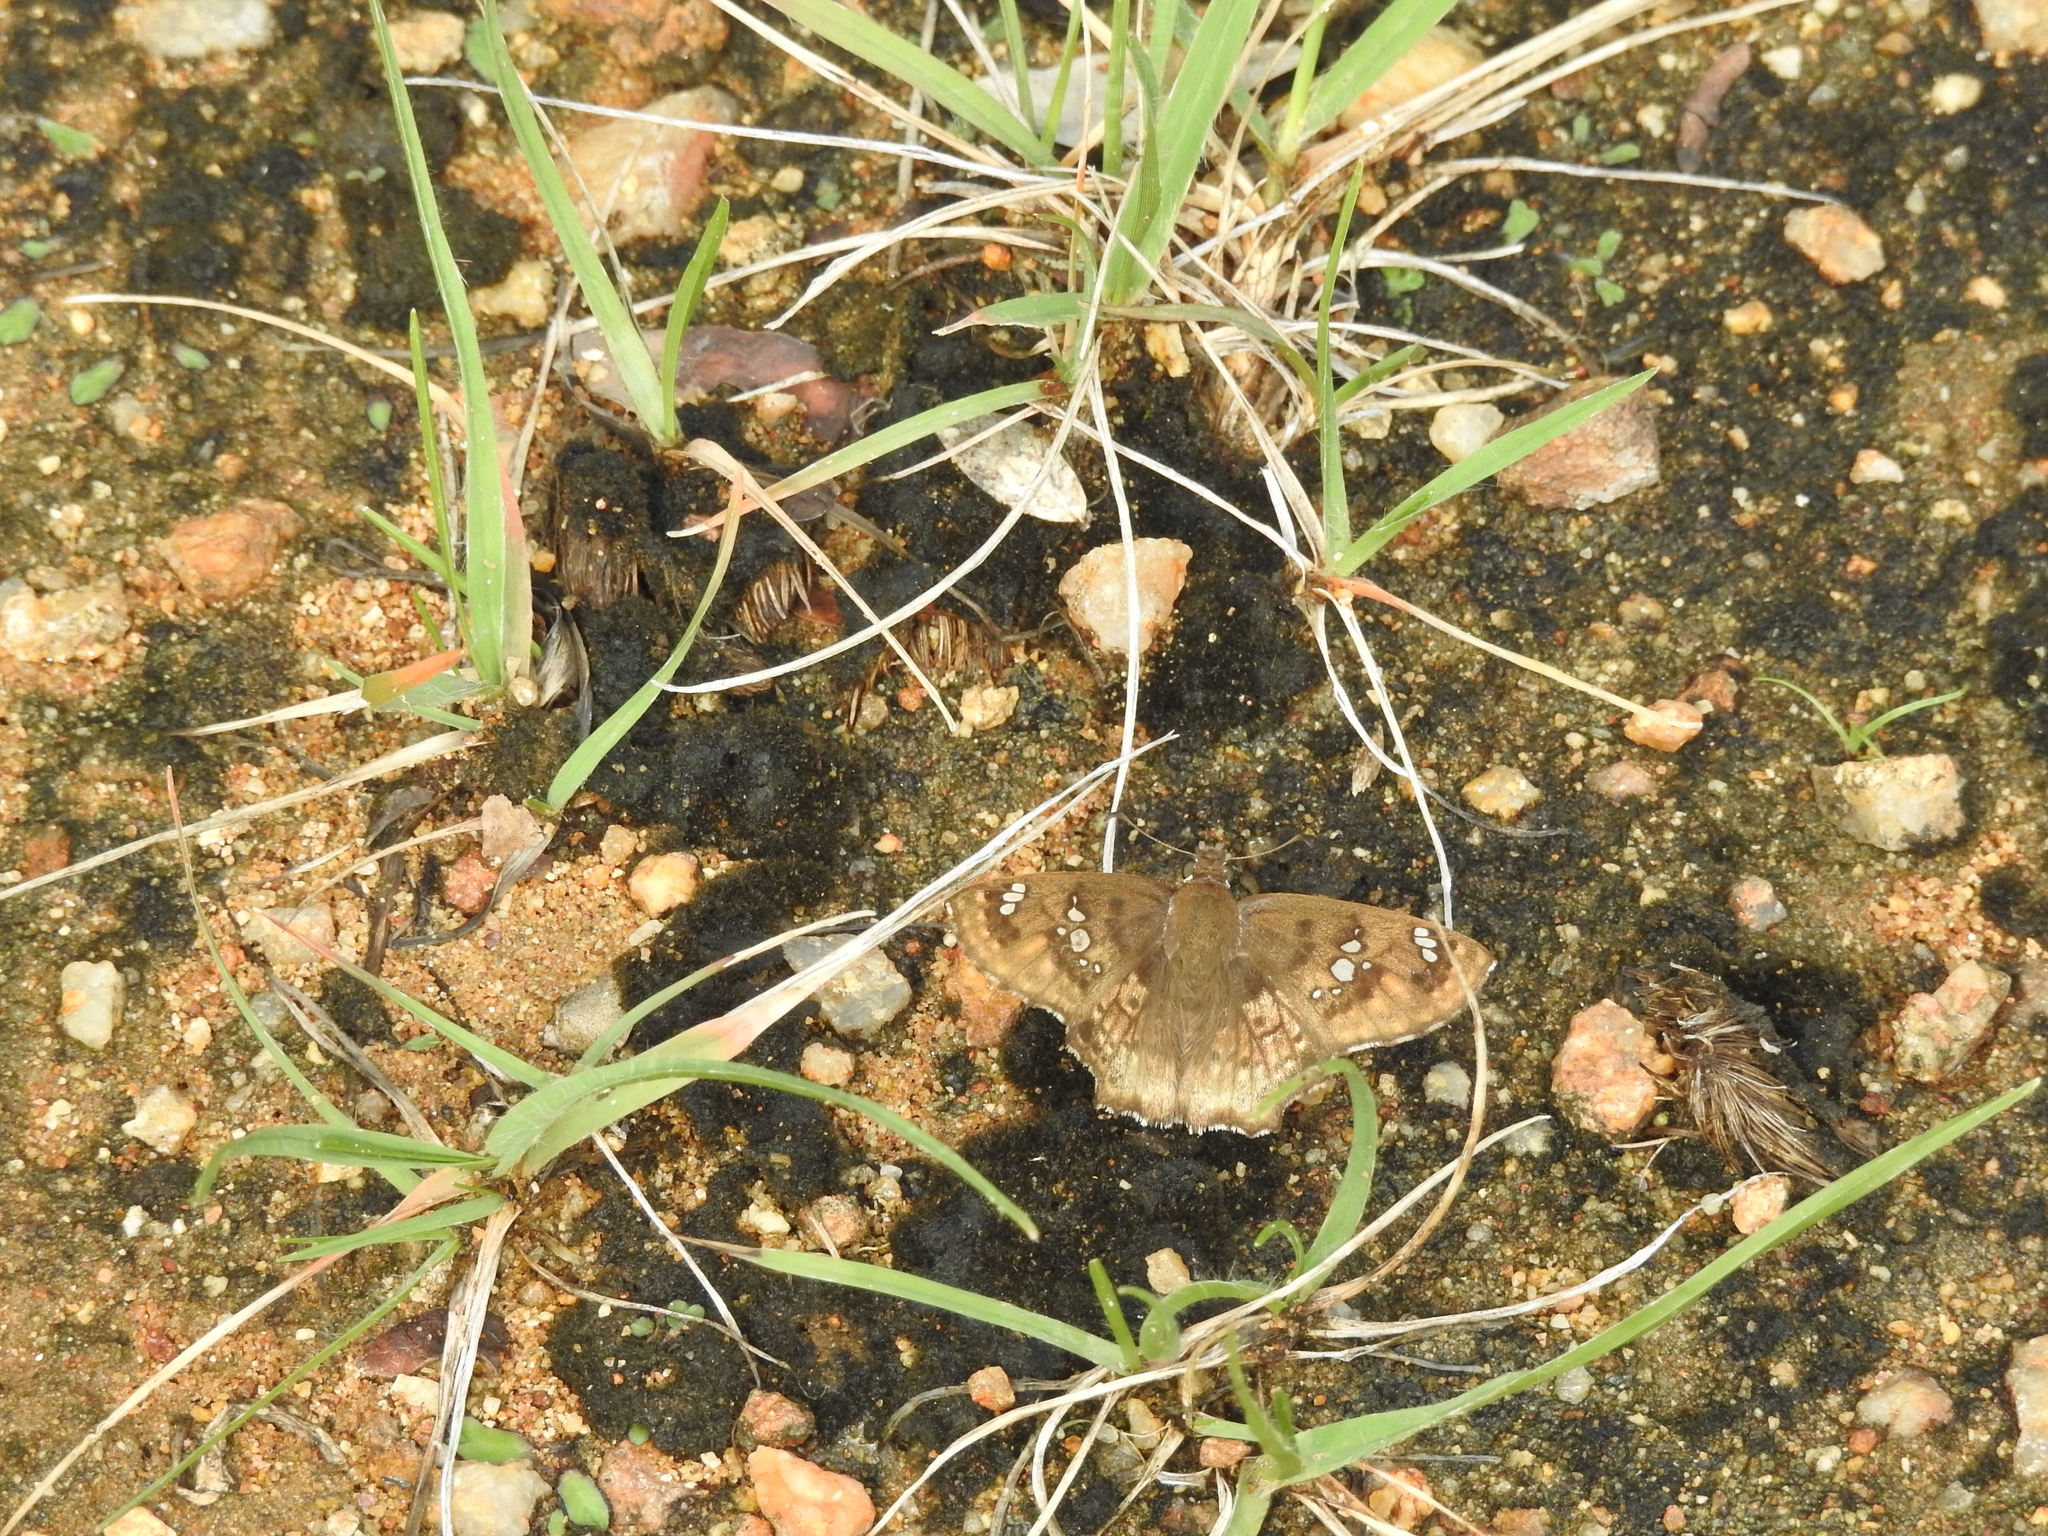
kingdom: Animalia
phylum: Arthropoda
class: Insecta
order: Lepidoptera
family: Hesperiidae
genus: Caprona
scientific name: Caprona ransonnettii
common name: Golden angle
